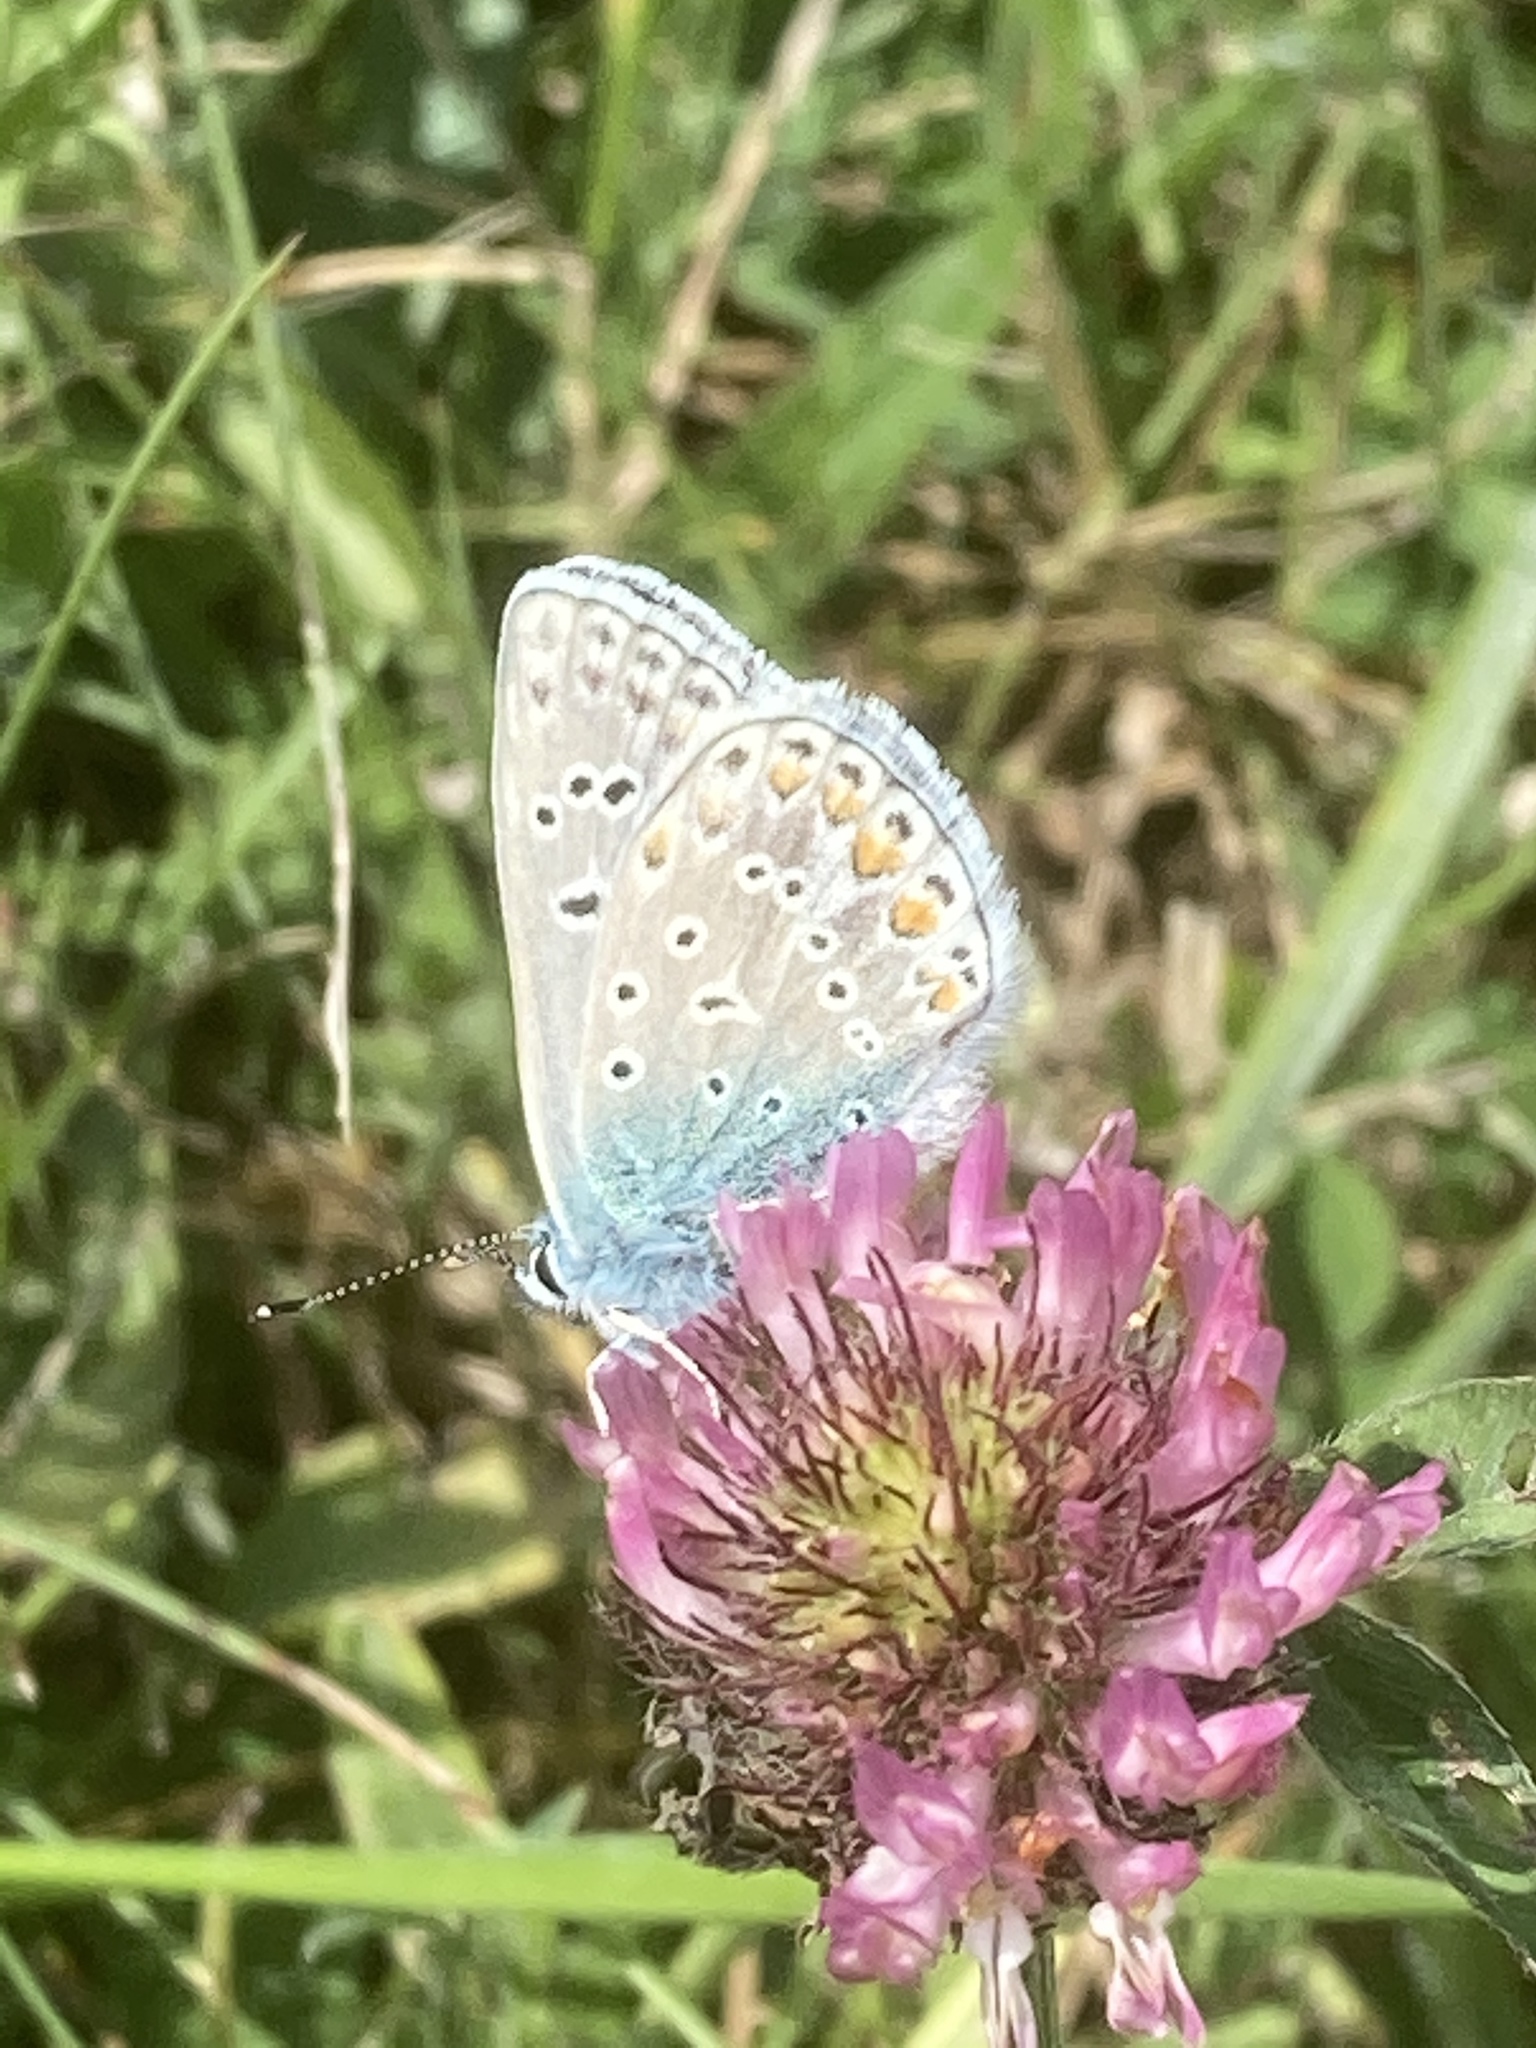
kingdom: Animalia
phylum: Arthropoda
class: Insecta
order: Lepidoptera
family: Lycaenidae
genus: Polyommatus
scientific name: Polyommatus icarus
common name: Common blue
